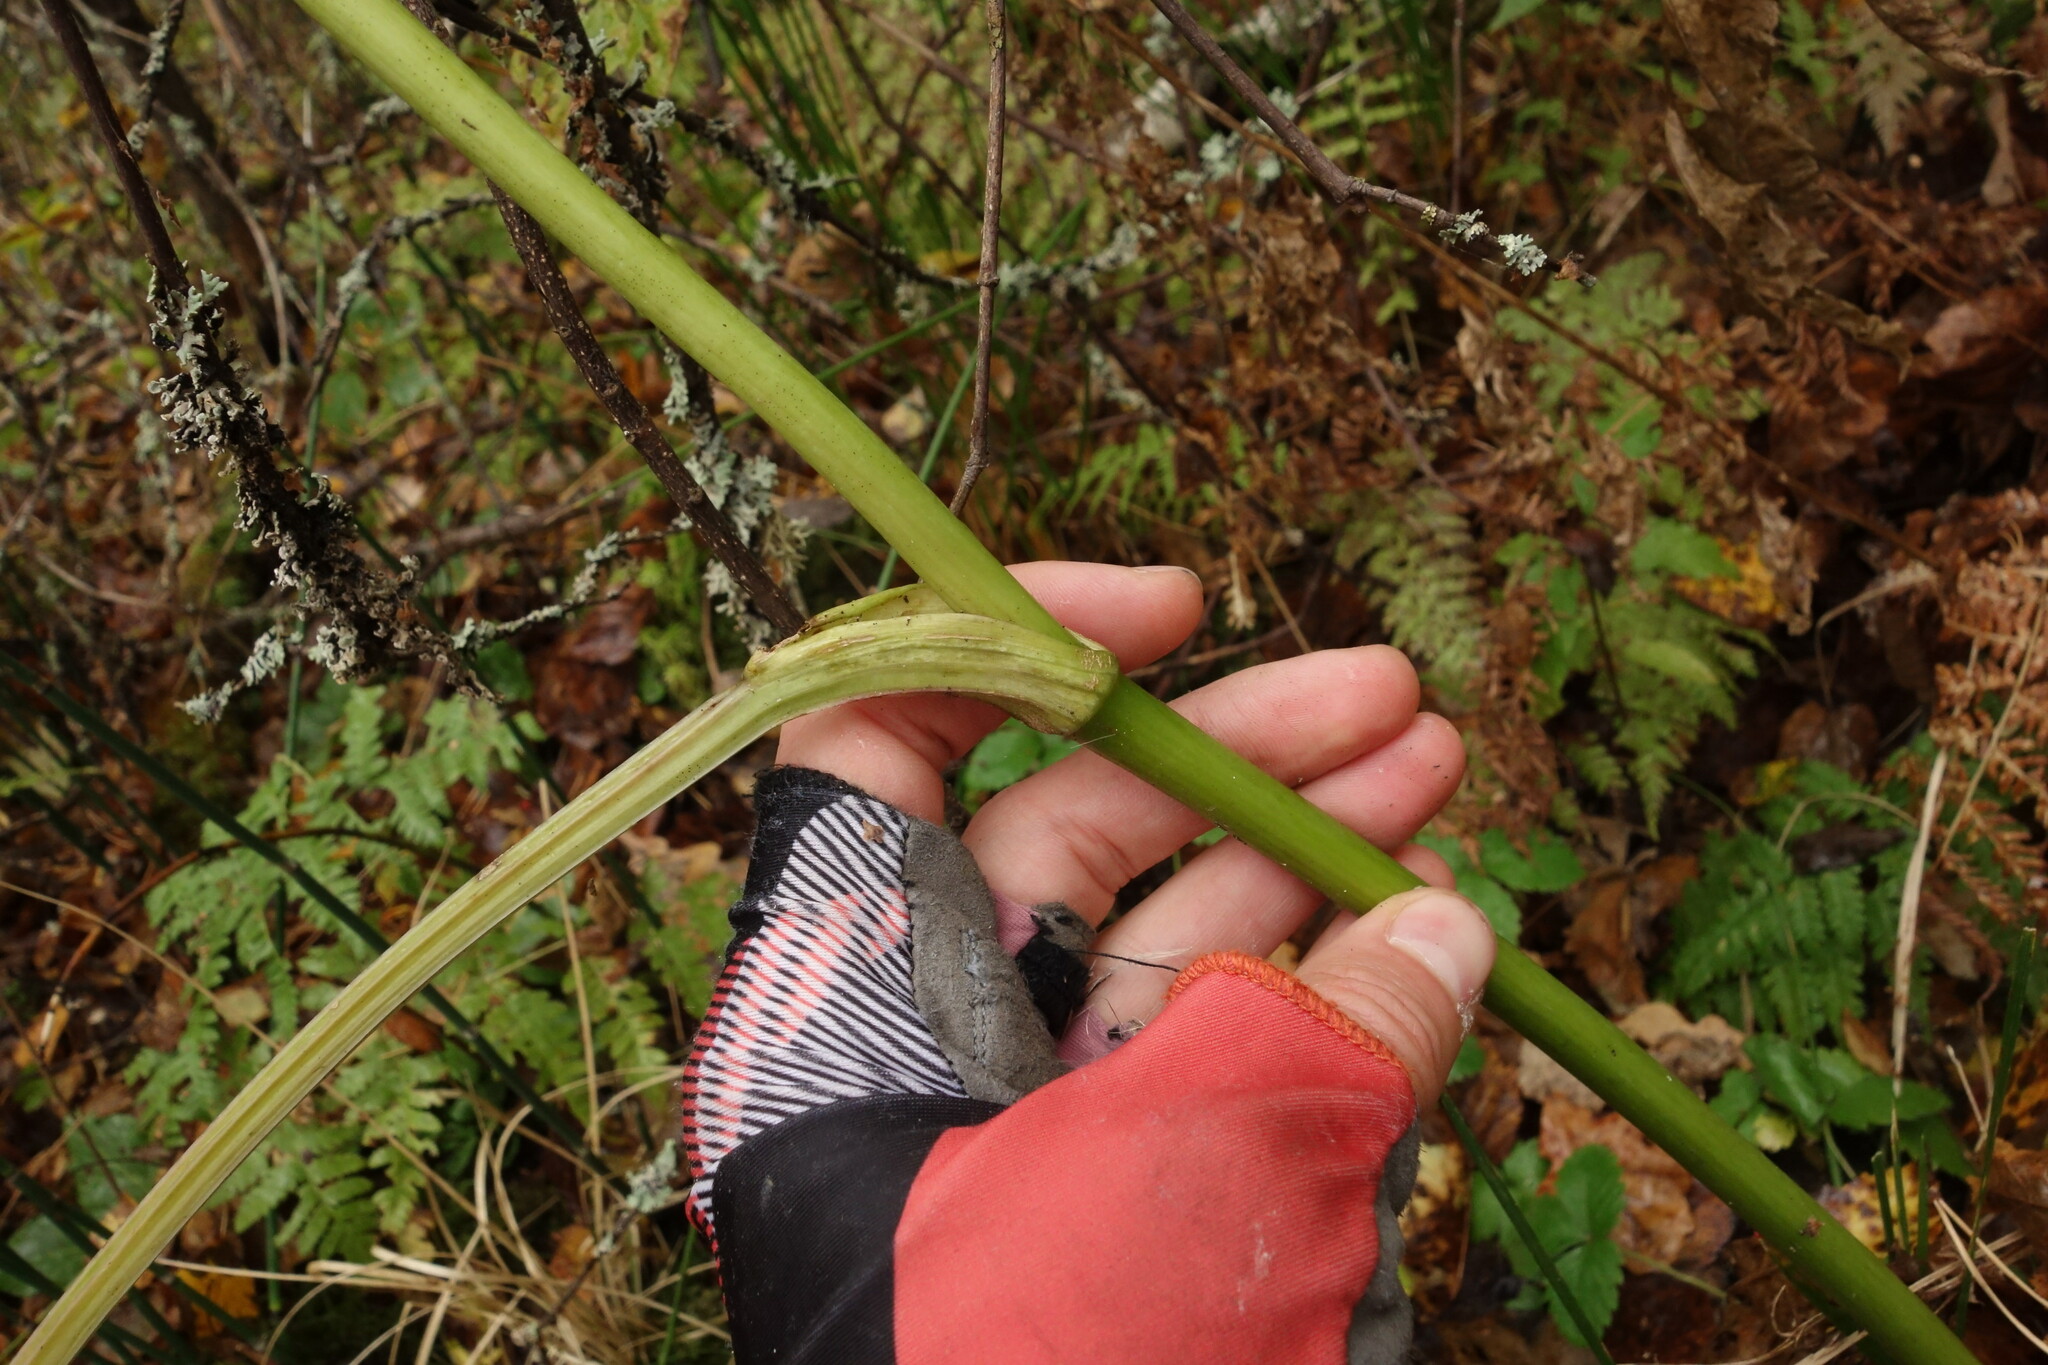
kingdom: Plantae
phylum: Tracheophyta
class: Magnoliopsida
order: Apiales
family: Apiaceae
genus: Angelica
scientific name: Angelica sylvestris
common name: Wild angelica
